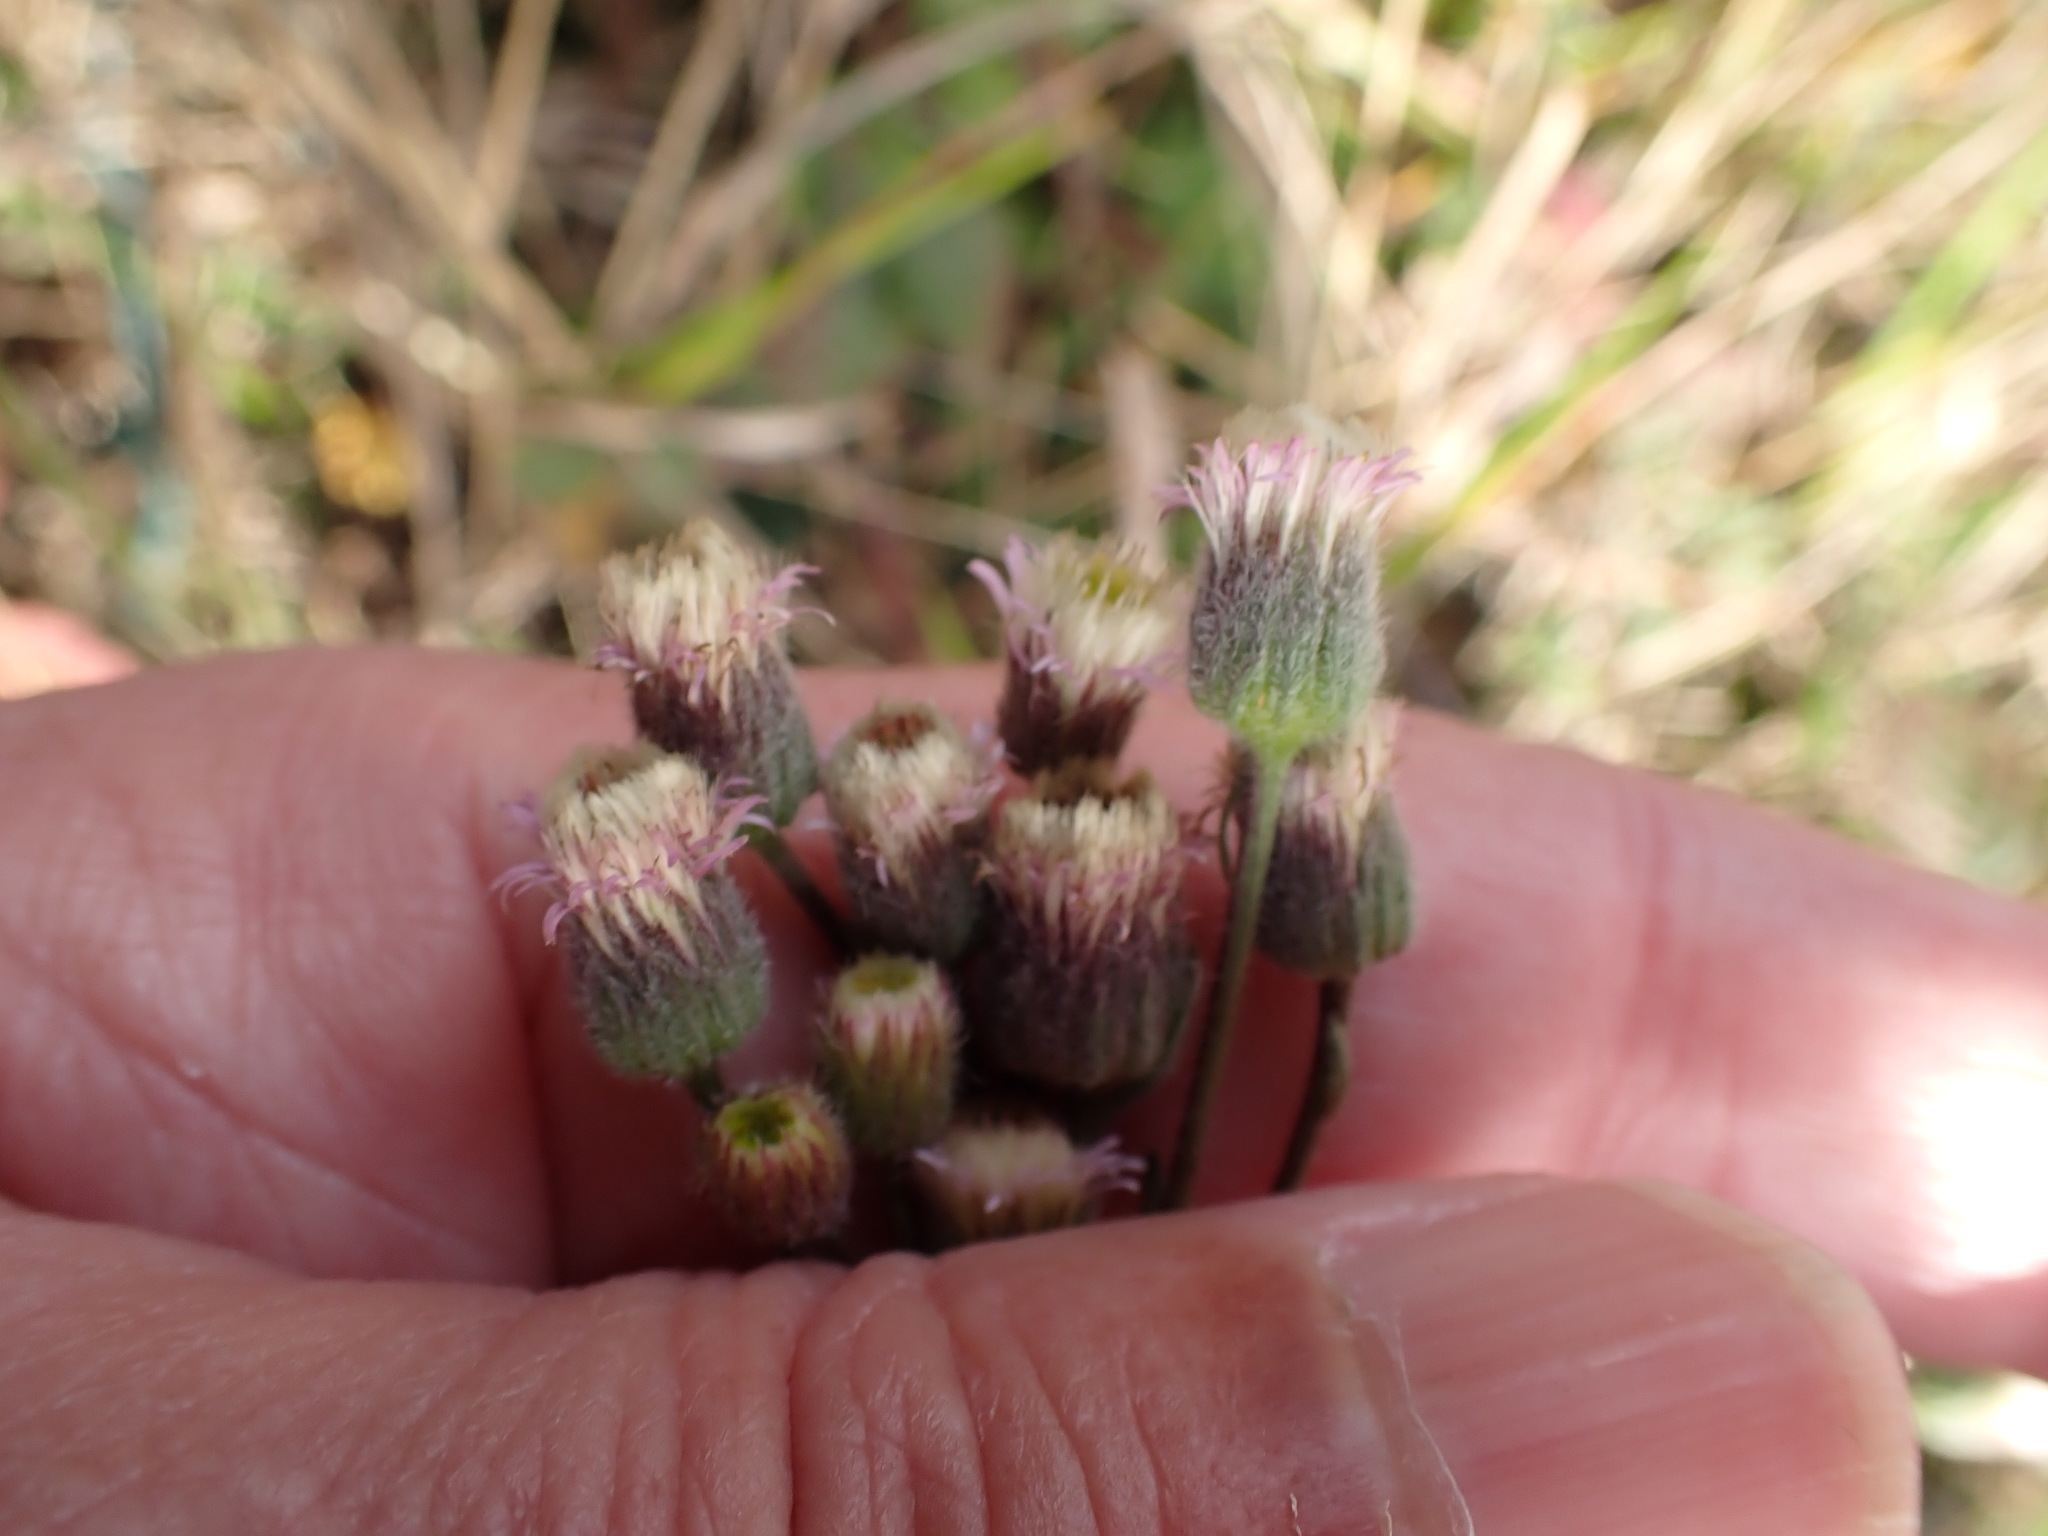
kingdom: Plantae
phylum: Tracheophyta
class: Magnoliopsida
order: Asterales
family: Asteraceae
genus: Erigeron
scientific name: Erigeron acris
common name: Blue fleabane
